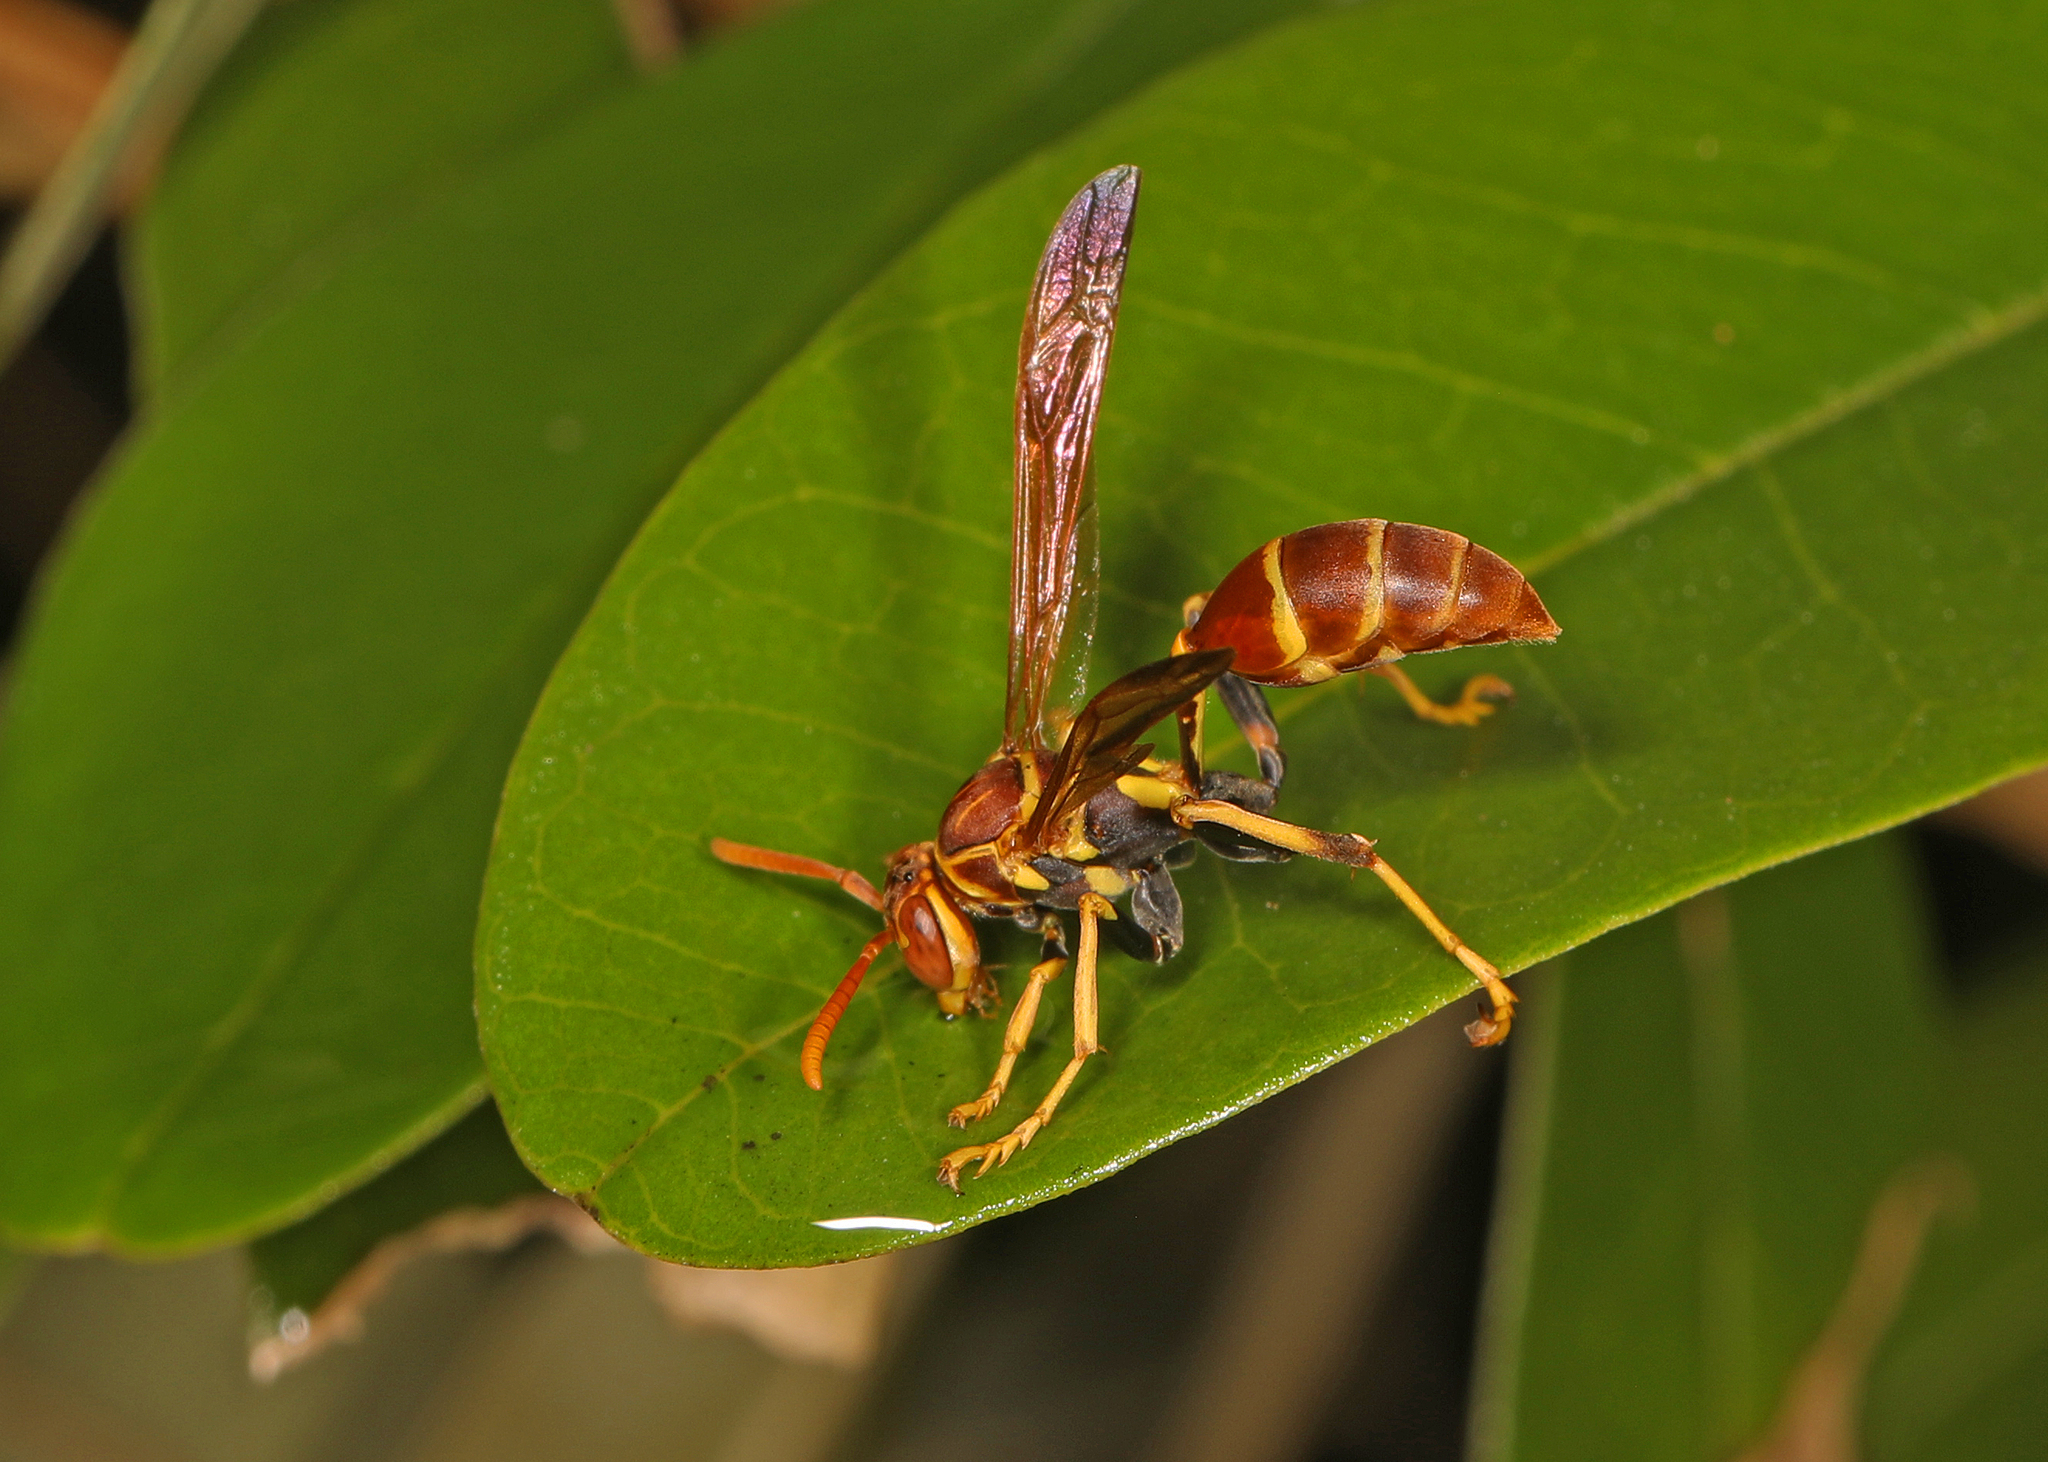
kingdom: Animalia
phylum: Arthropoda
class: Insecta
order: Hymenoptera
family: Vespidae
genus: Mischocyttarus
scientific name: Mischocyttarus mexicanus
